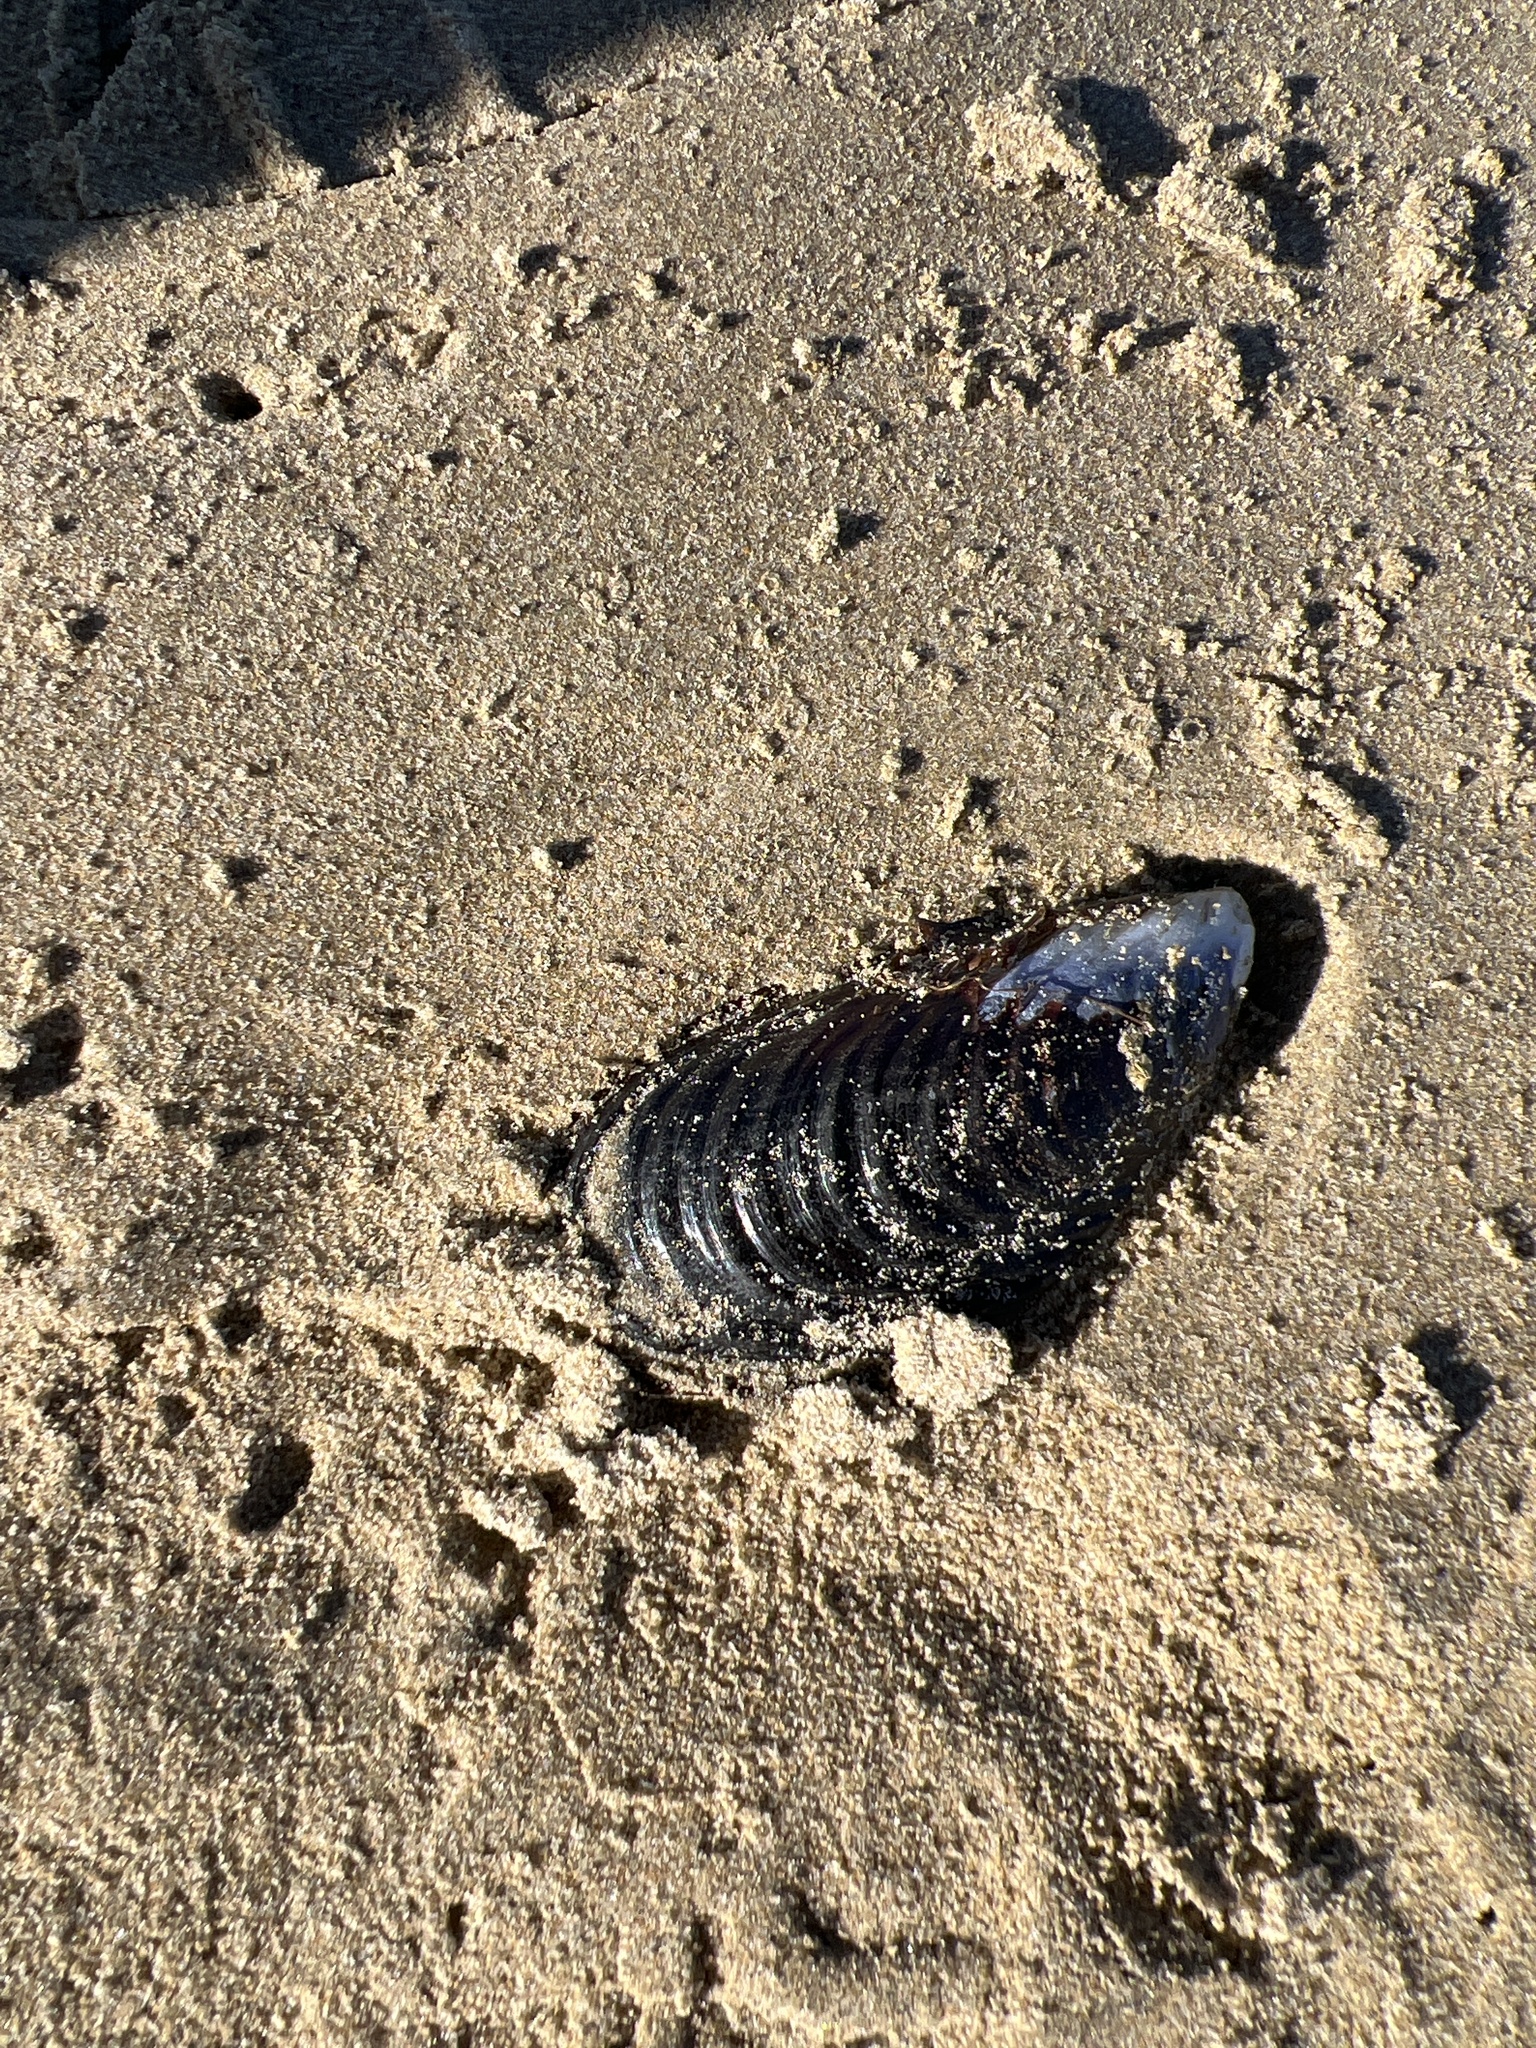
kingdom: Animalia
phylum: Mollusca
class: Bivalvia
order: Mytilida
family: Mytilidae
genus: Mytilus
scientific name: Mytilus californianus
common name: California mussel
